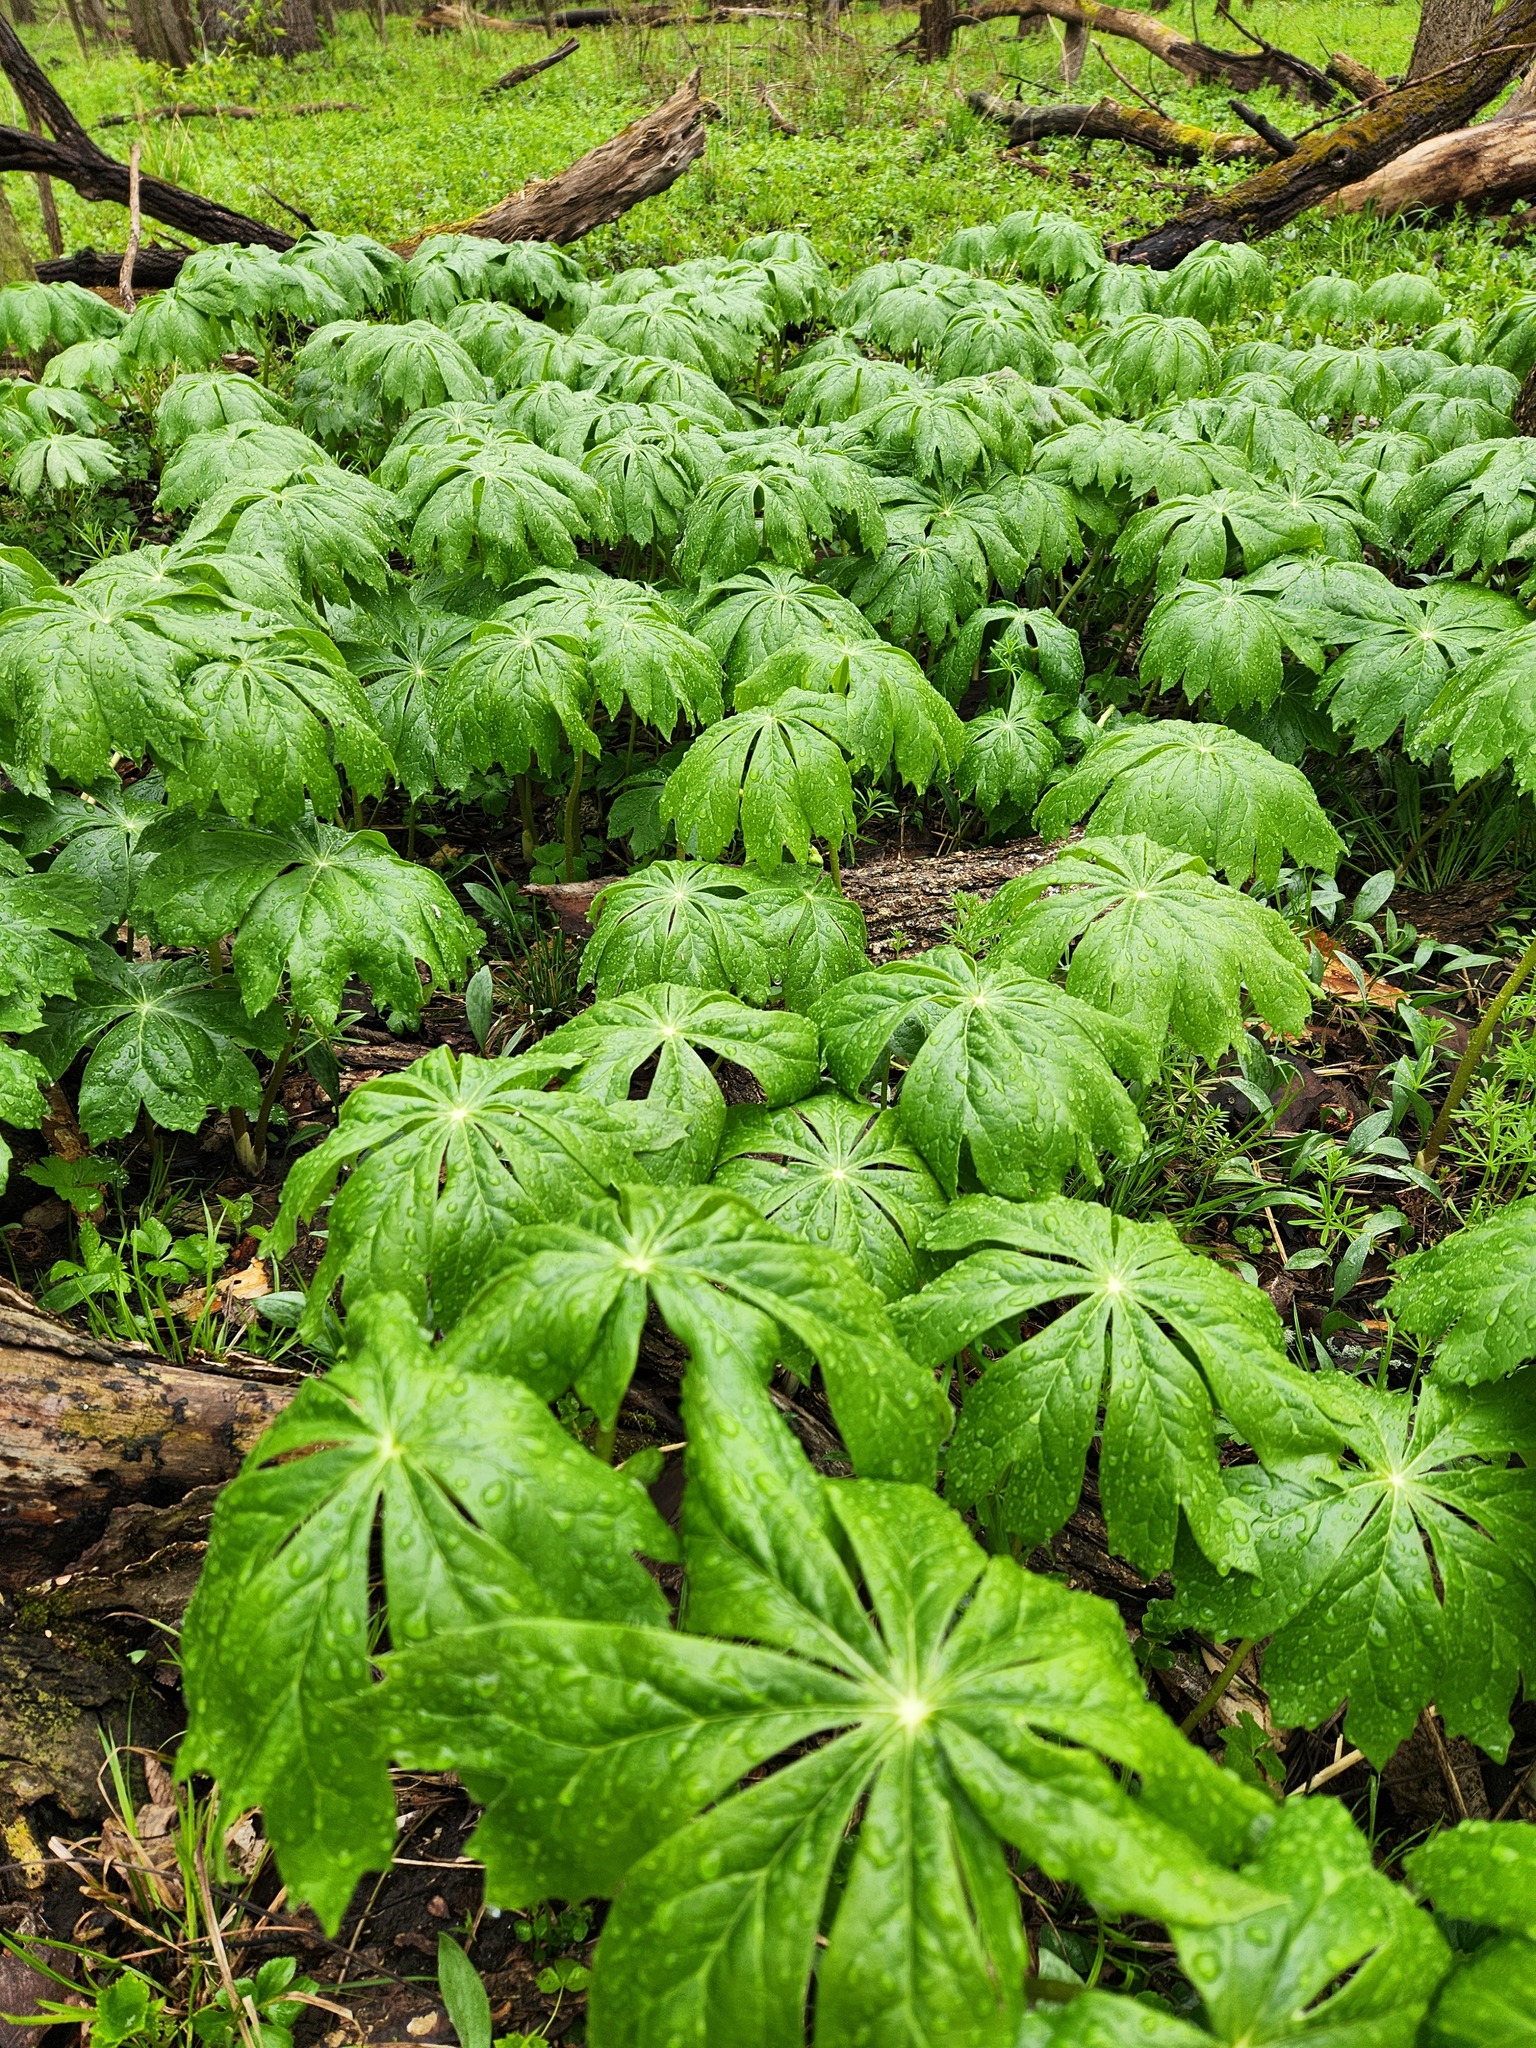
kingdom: Plantae
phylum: Tracheophyta
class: Magnoliopsida
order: Ranunculales
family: Berberidaceae
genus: Podophyllum
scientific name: Podophyllum peltatum
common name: Wild mandrake
